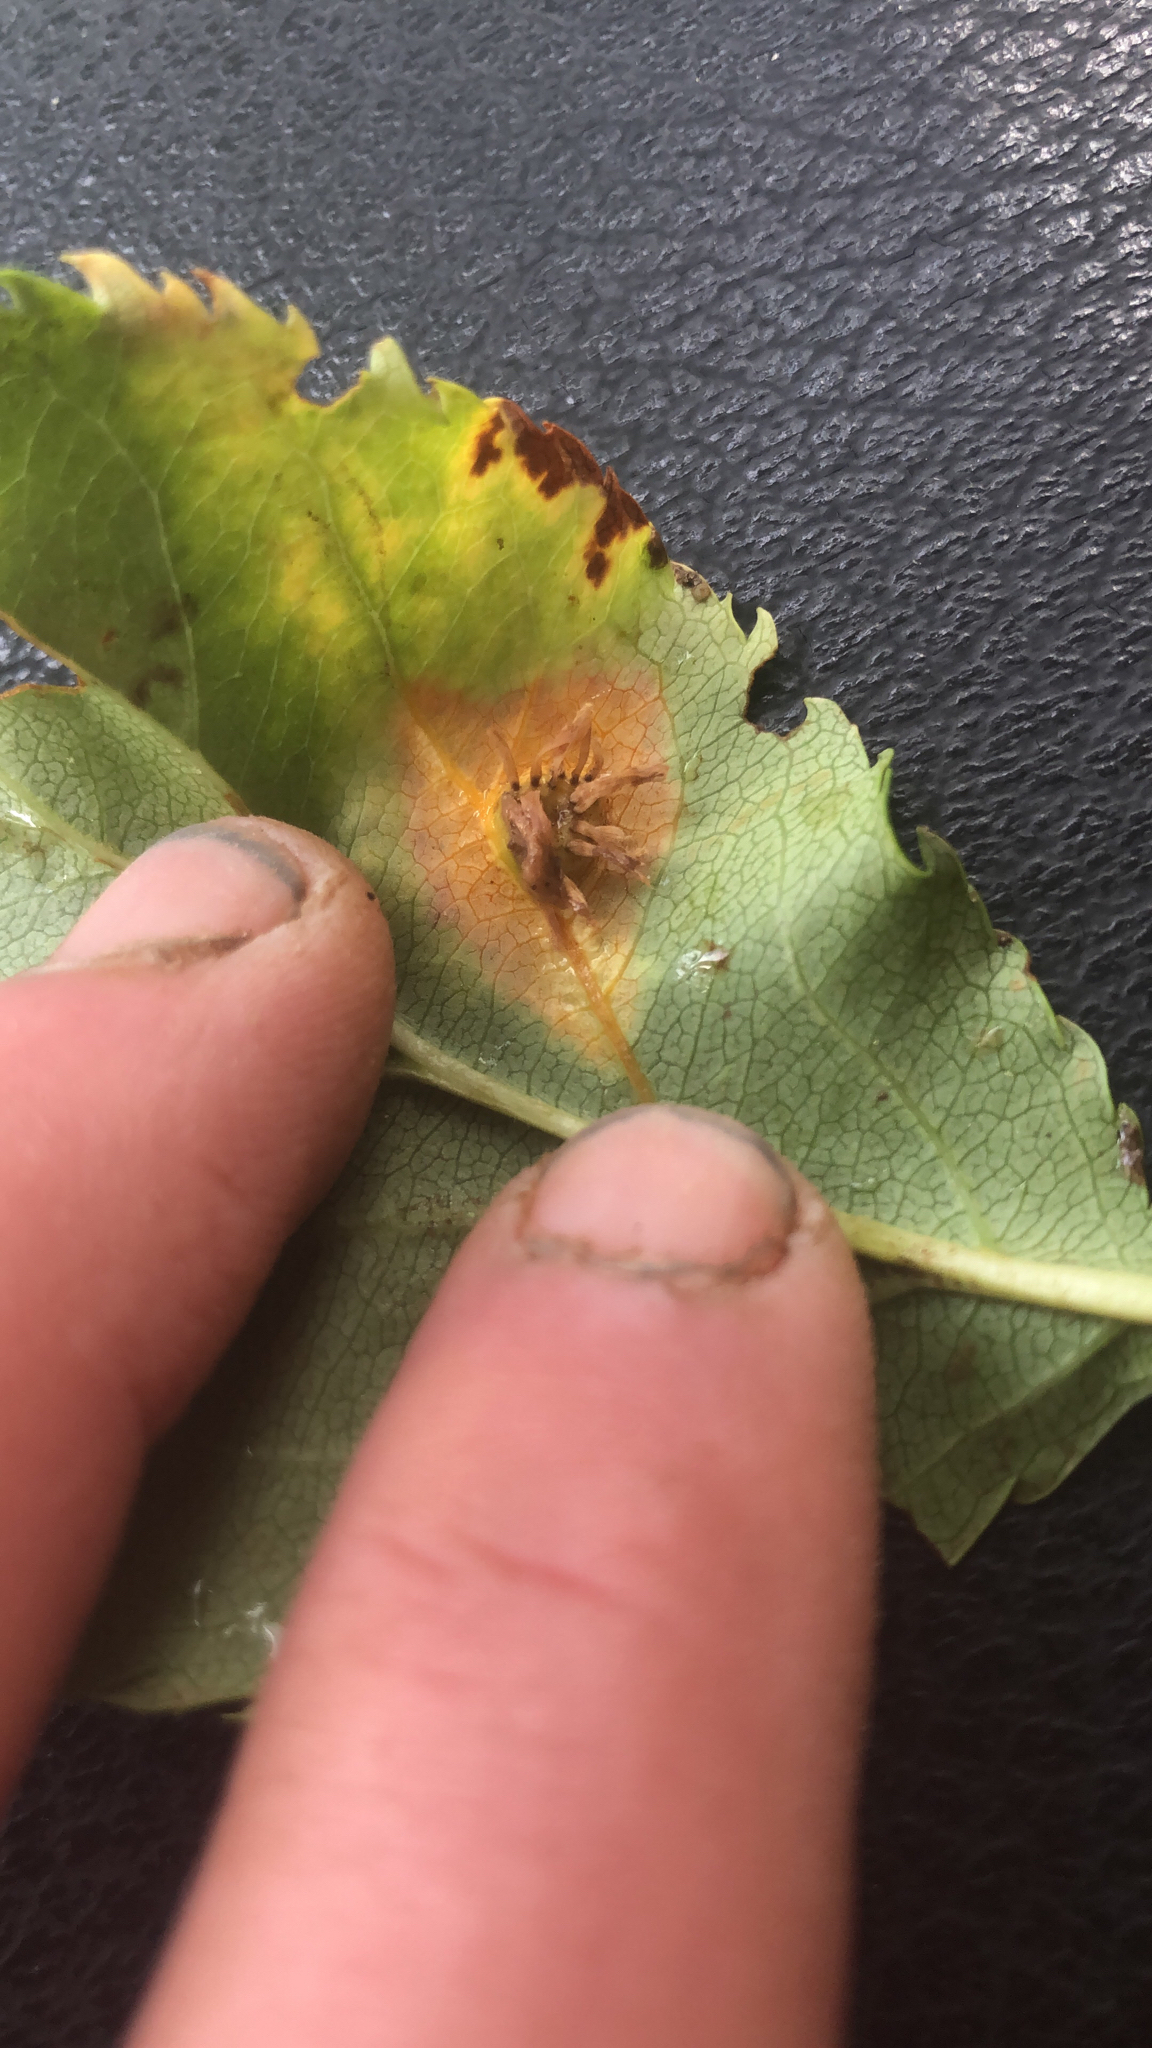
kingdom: Fungi
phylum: Basidiomycota
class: Pucciniomycetes
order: Pucciniales
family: Gymnosporangiaceae
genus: Gymnosporangium
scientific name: Gymnosporangium sabinae
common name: Pear trellis rust fungus
